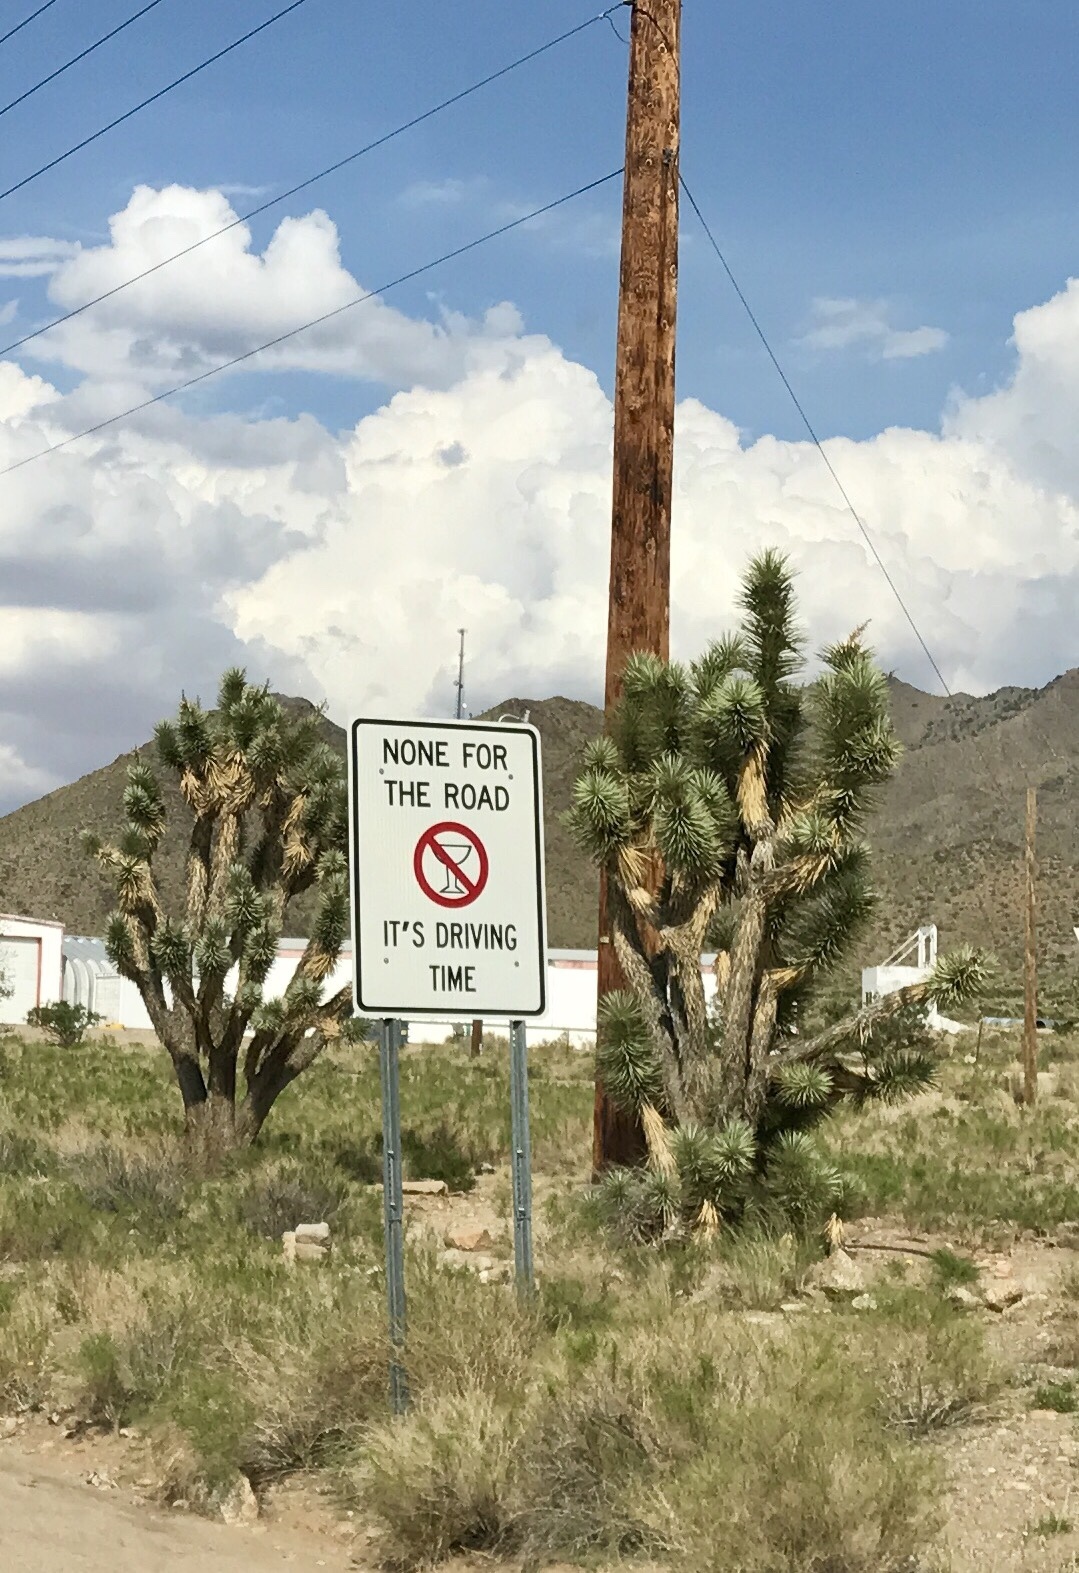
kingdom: Plantae
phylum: Tracheophyta
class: Liliopsida
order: Asparagales
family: Asparagaceae
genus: Yucca
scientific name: Yucca brevifolia
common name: Joshua tree
